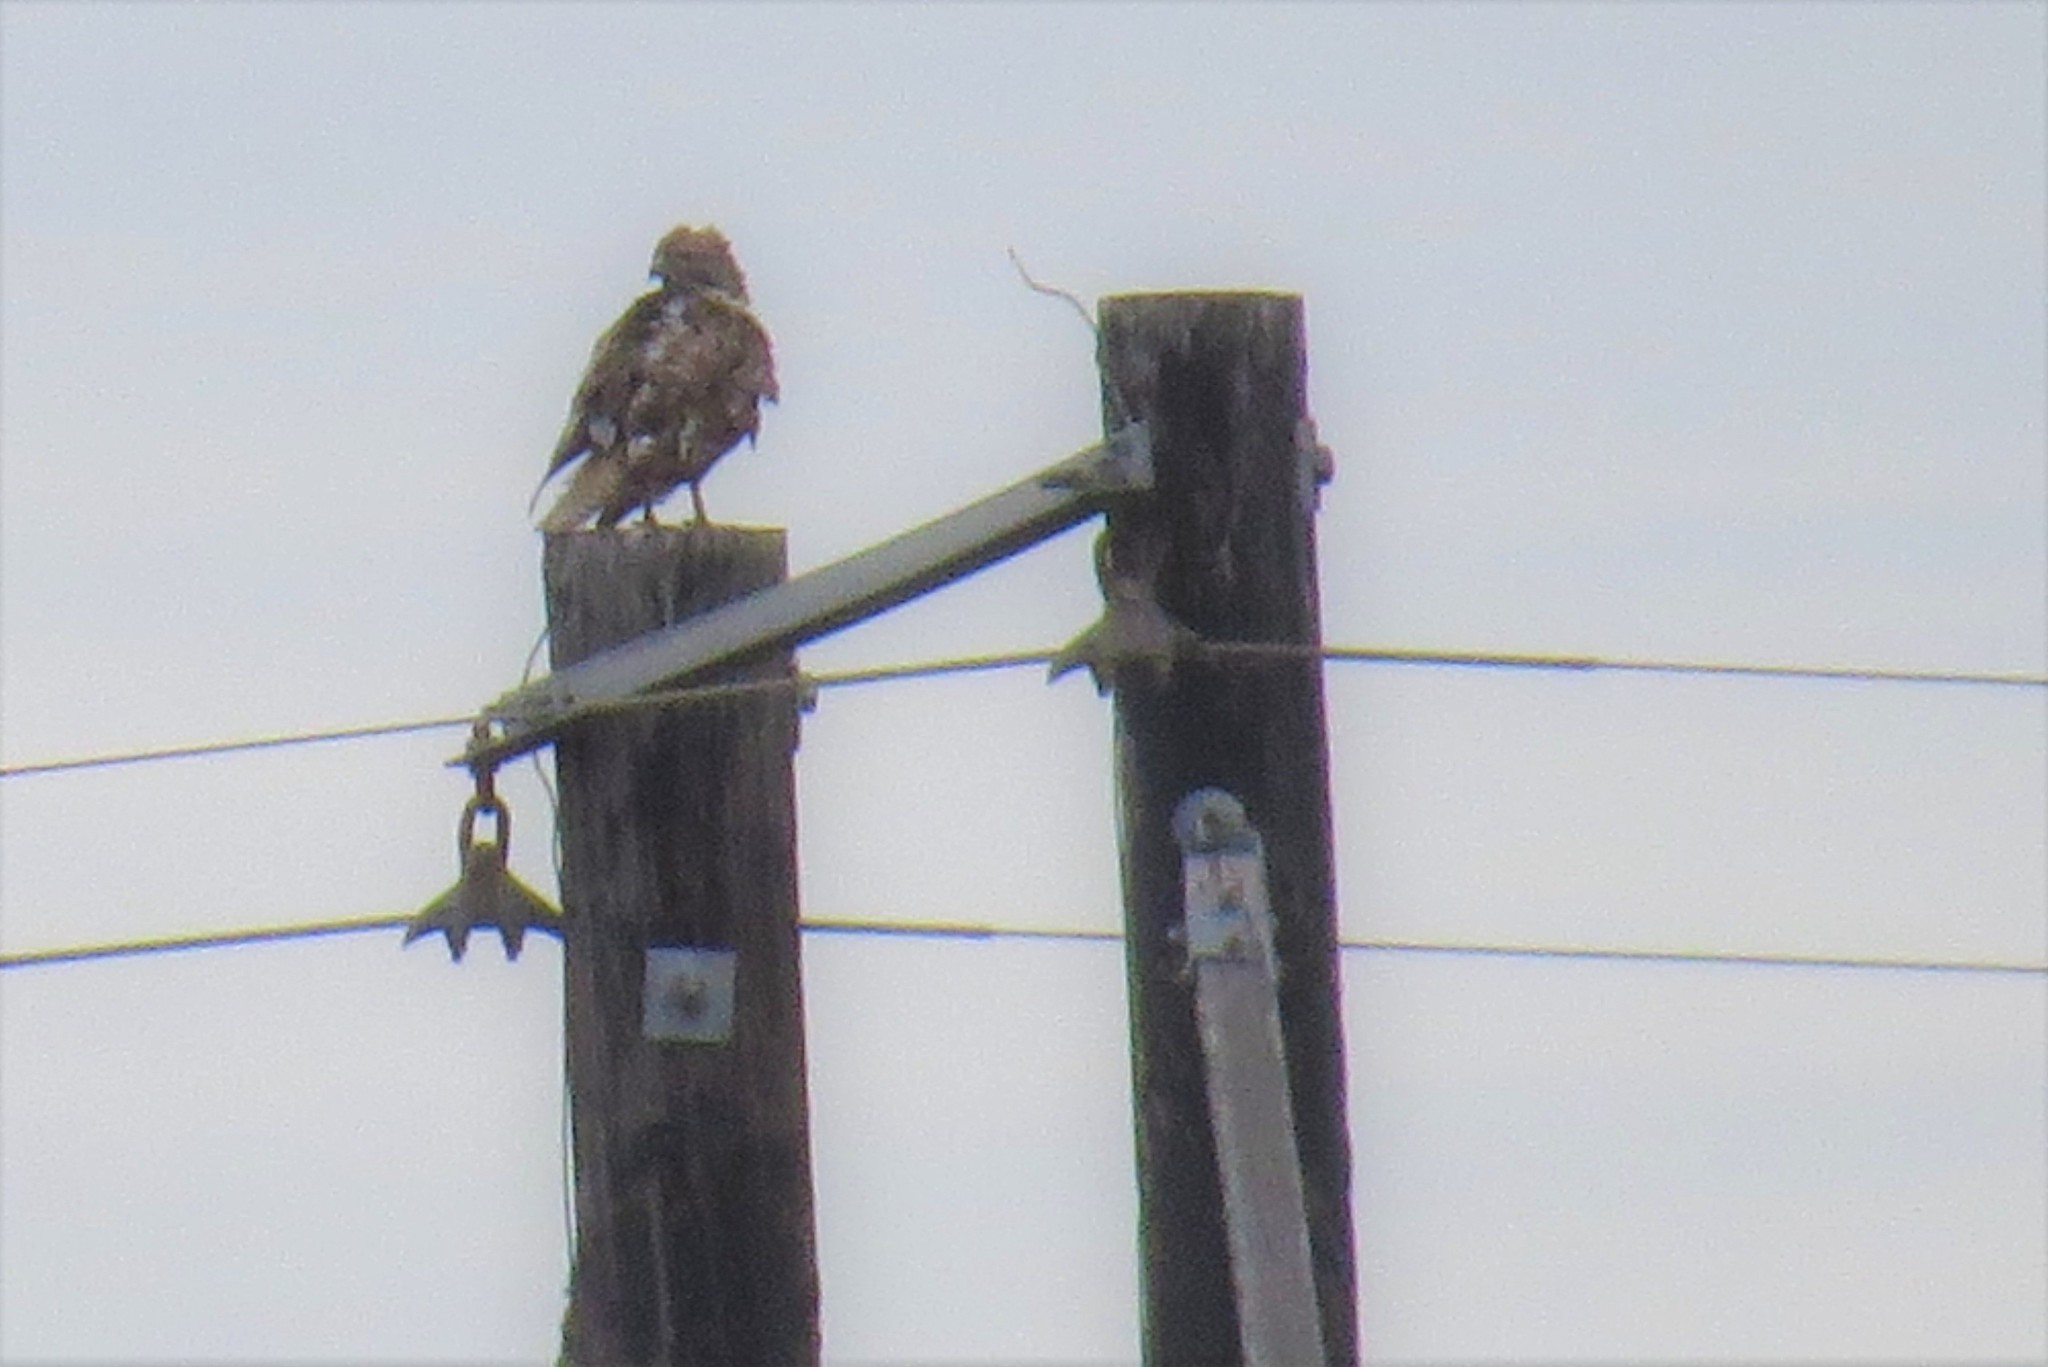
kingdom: Animalia
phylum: Chordata
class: Aves
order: Accipitriformes
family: Accipitridae
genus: Buteo
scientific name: Buteo jamaicensis
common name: Red-tailed hawk
